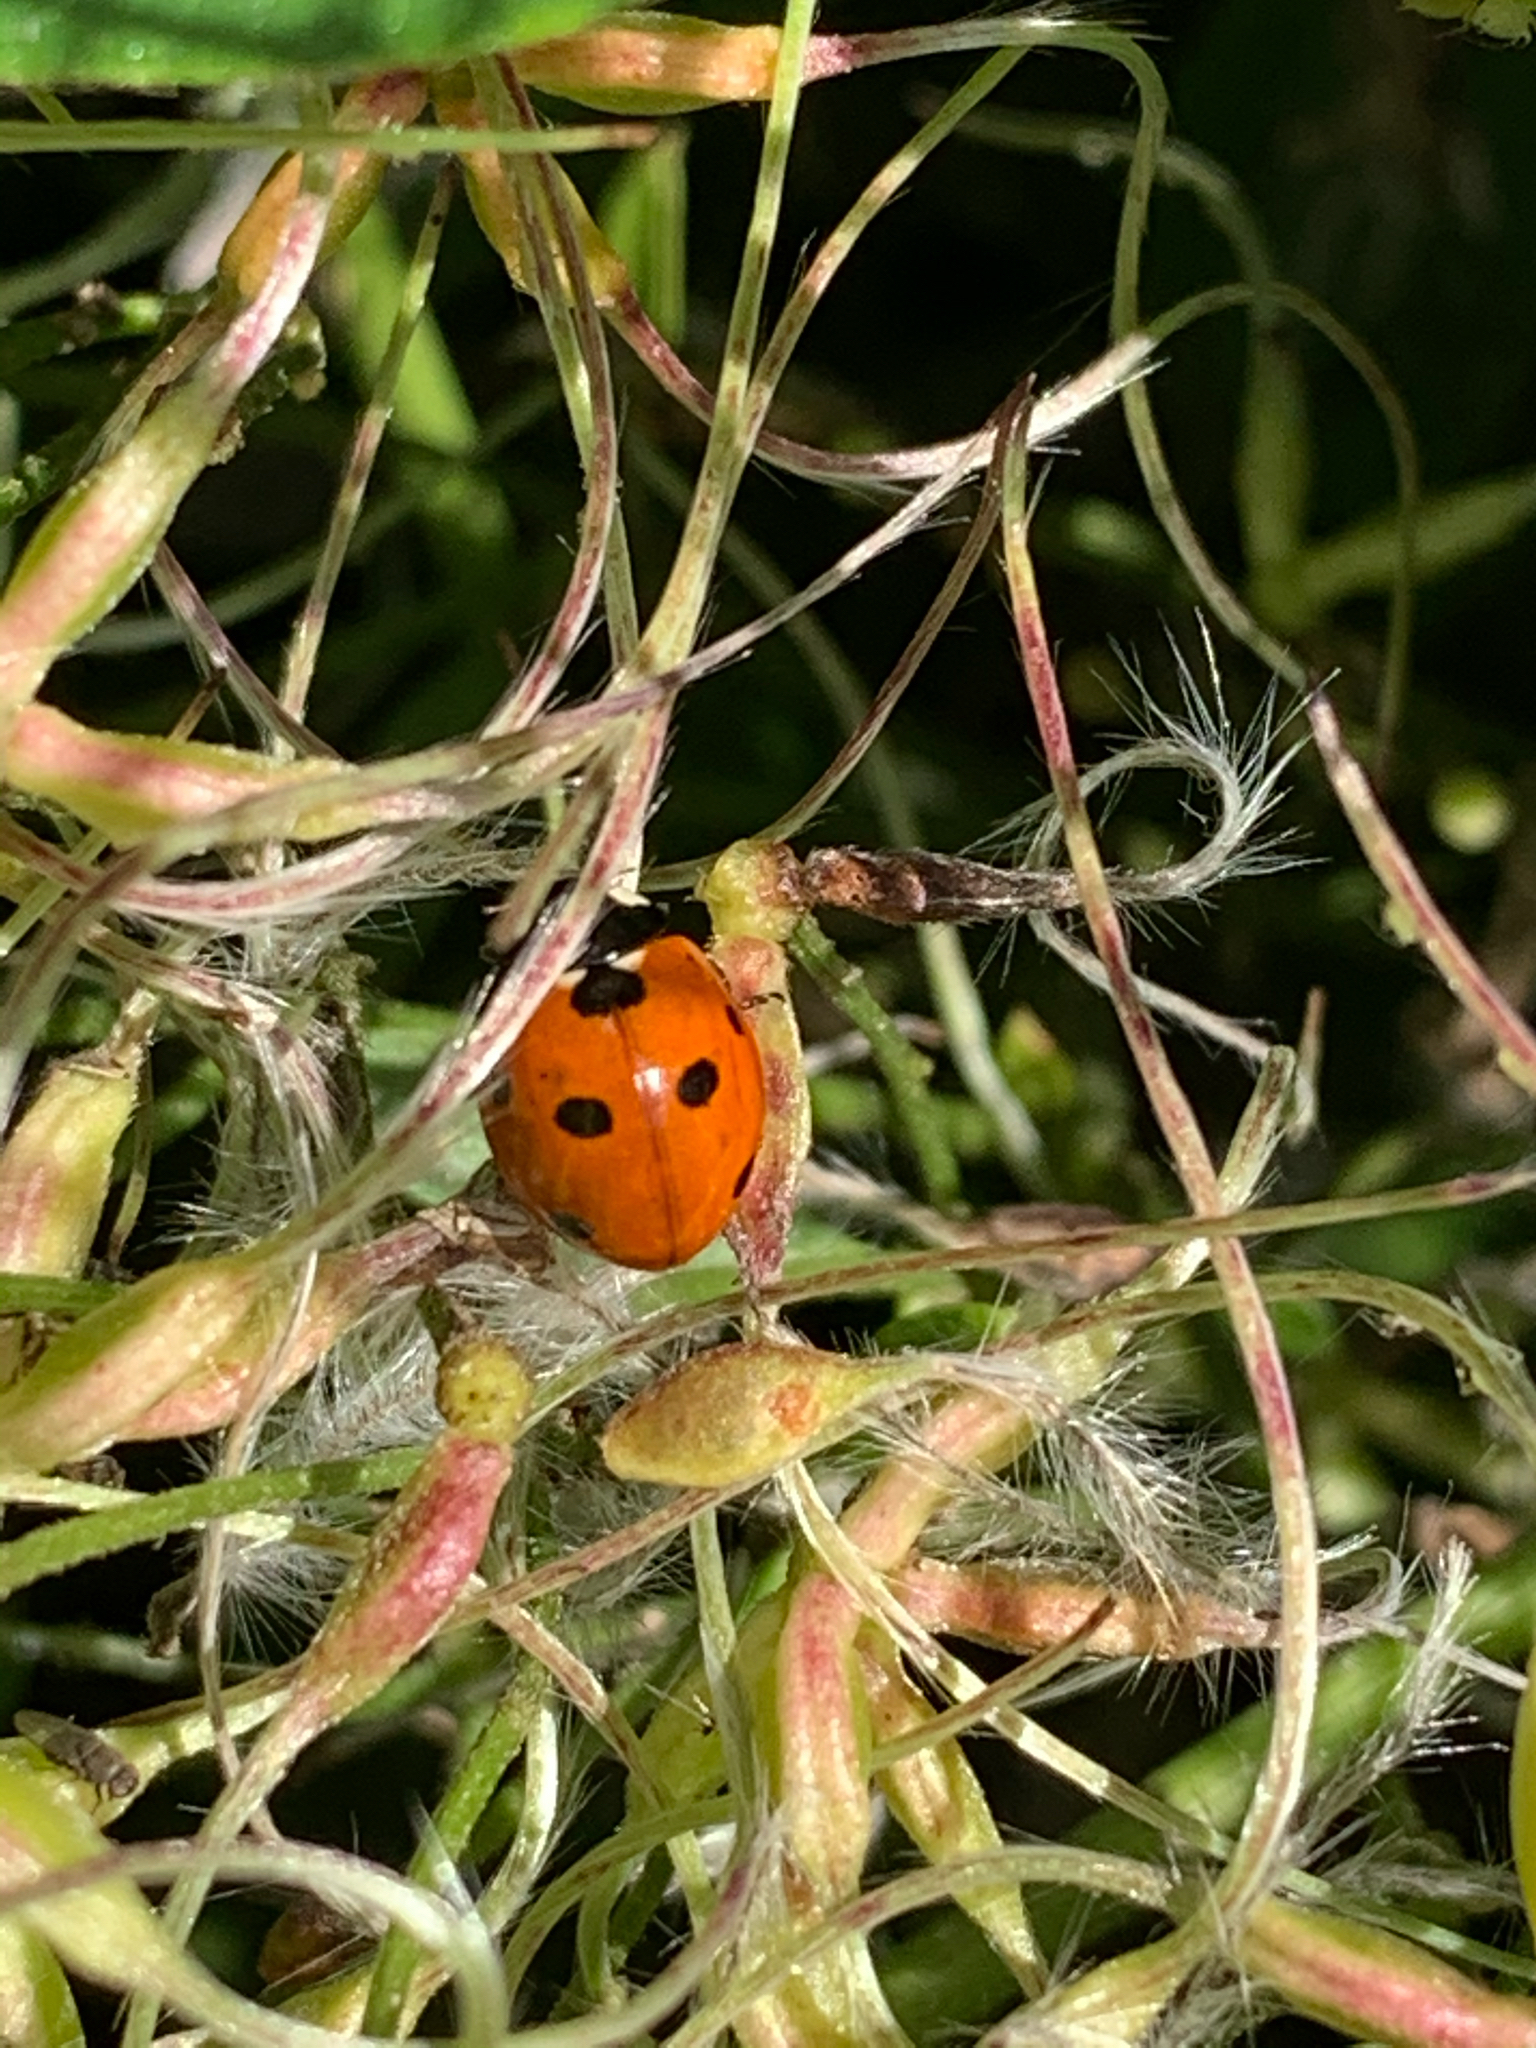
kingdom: Animalia
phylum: Arthropoda
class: Insecta
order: Coleoptera
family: Coccinellidae
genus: Coccinella
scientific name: Coccinella septempunctata
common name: Sevenspotted lady beetle
